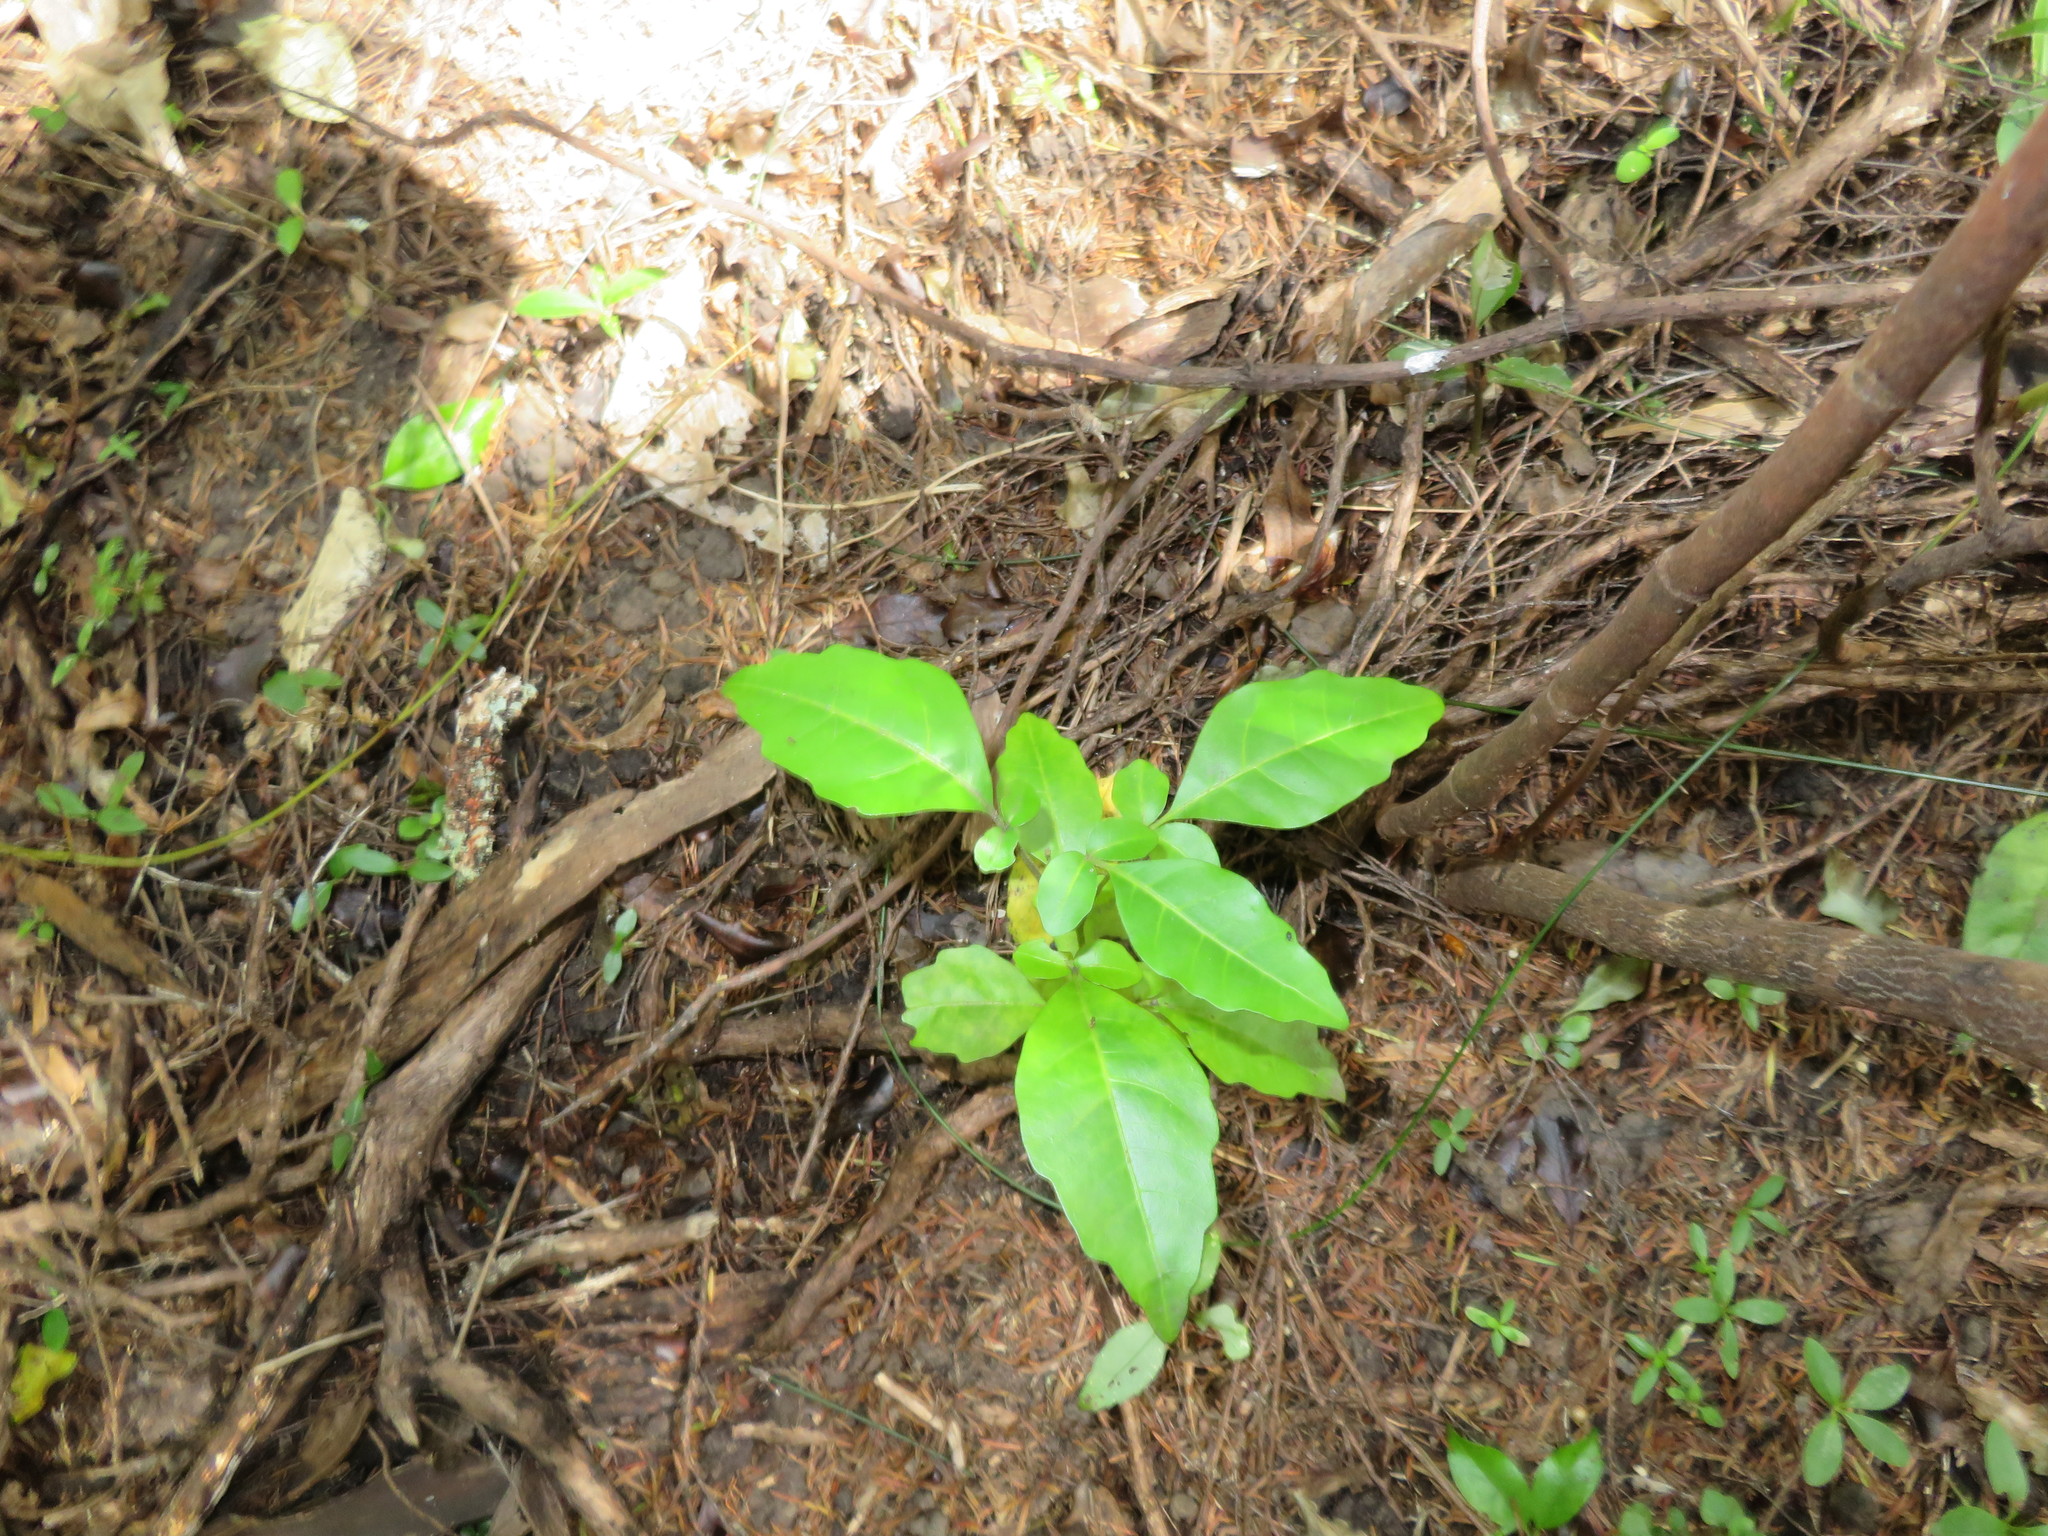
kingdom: Plantae
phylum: Tracheophyta
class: Magnoliopsida
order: Sapindales
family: Meliaceae
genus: Didymocheton
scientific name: Didymocheton spectabilis
